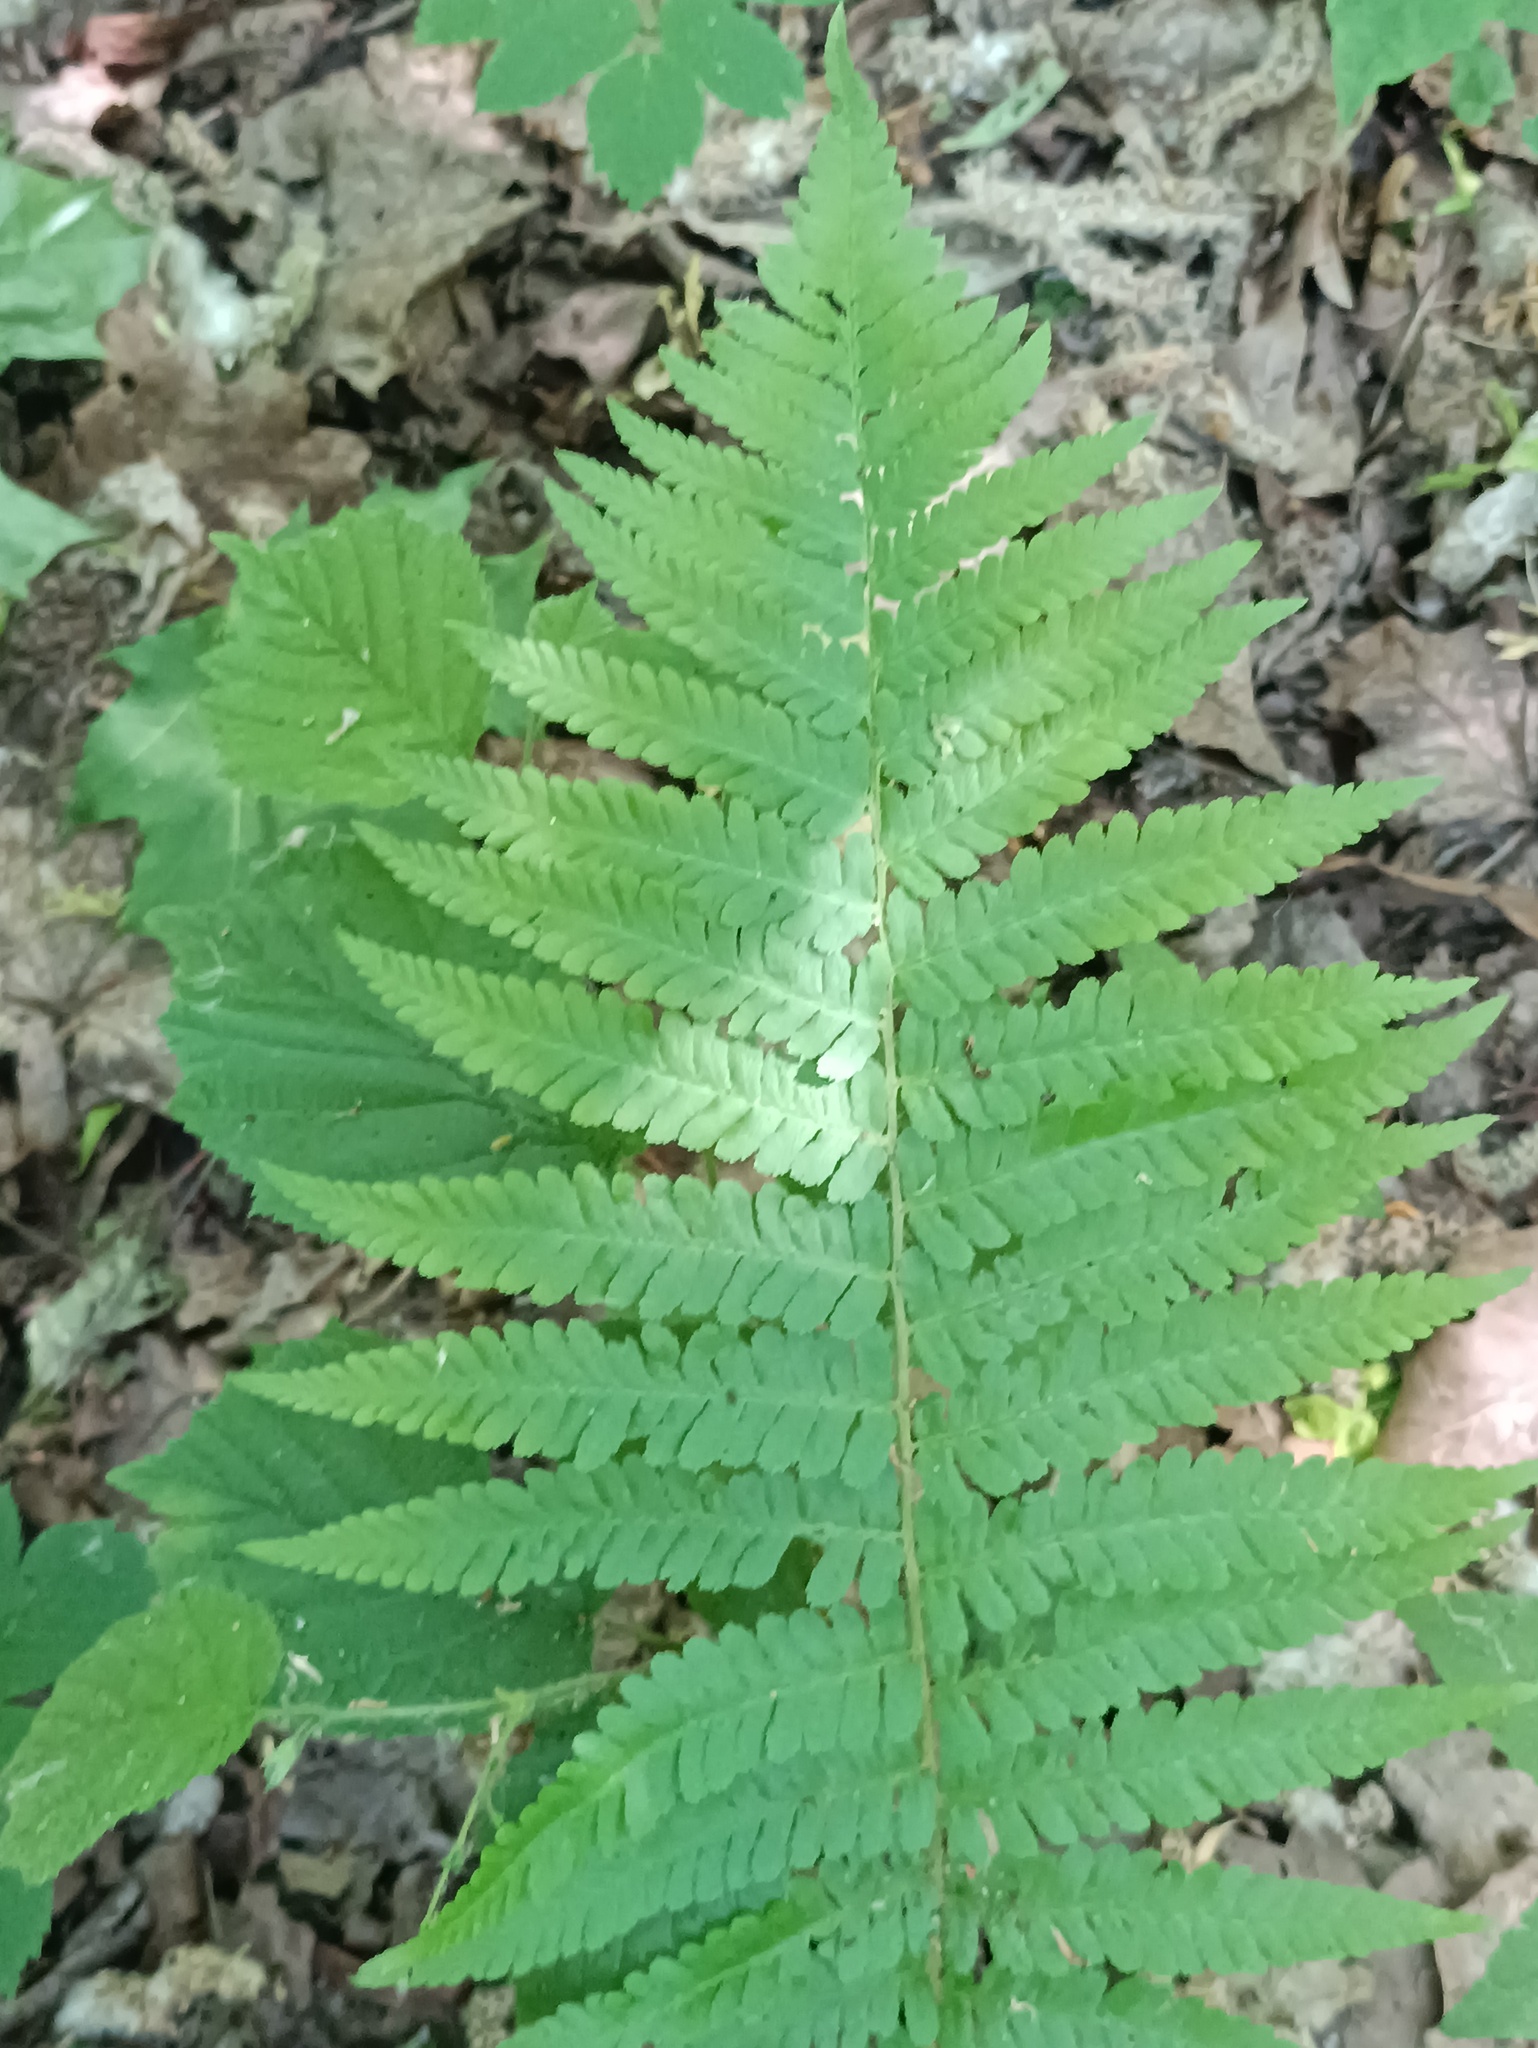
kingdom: Plantae
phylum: Tracheophyta
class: Polypodiopsida
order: Polypodiales
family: Dryopteridaceae
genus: Dryopteris
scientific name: Dryopteris filix-mas
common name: Male fern
